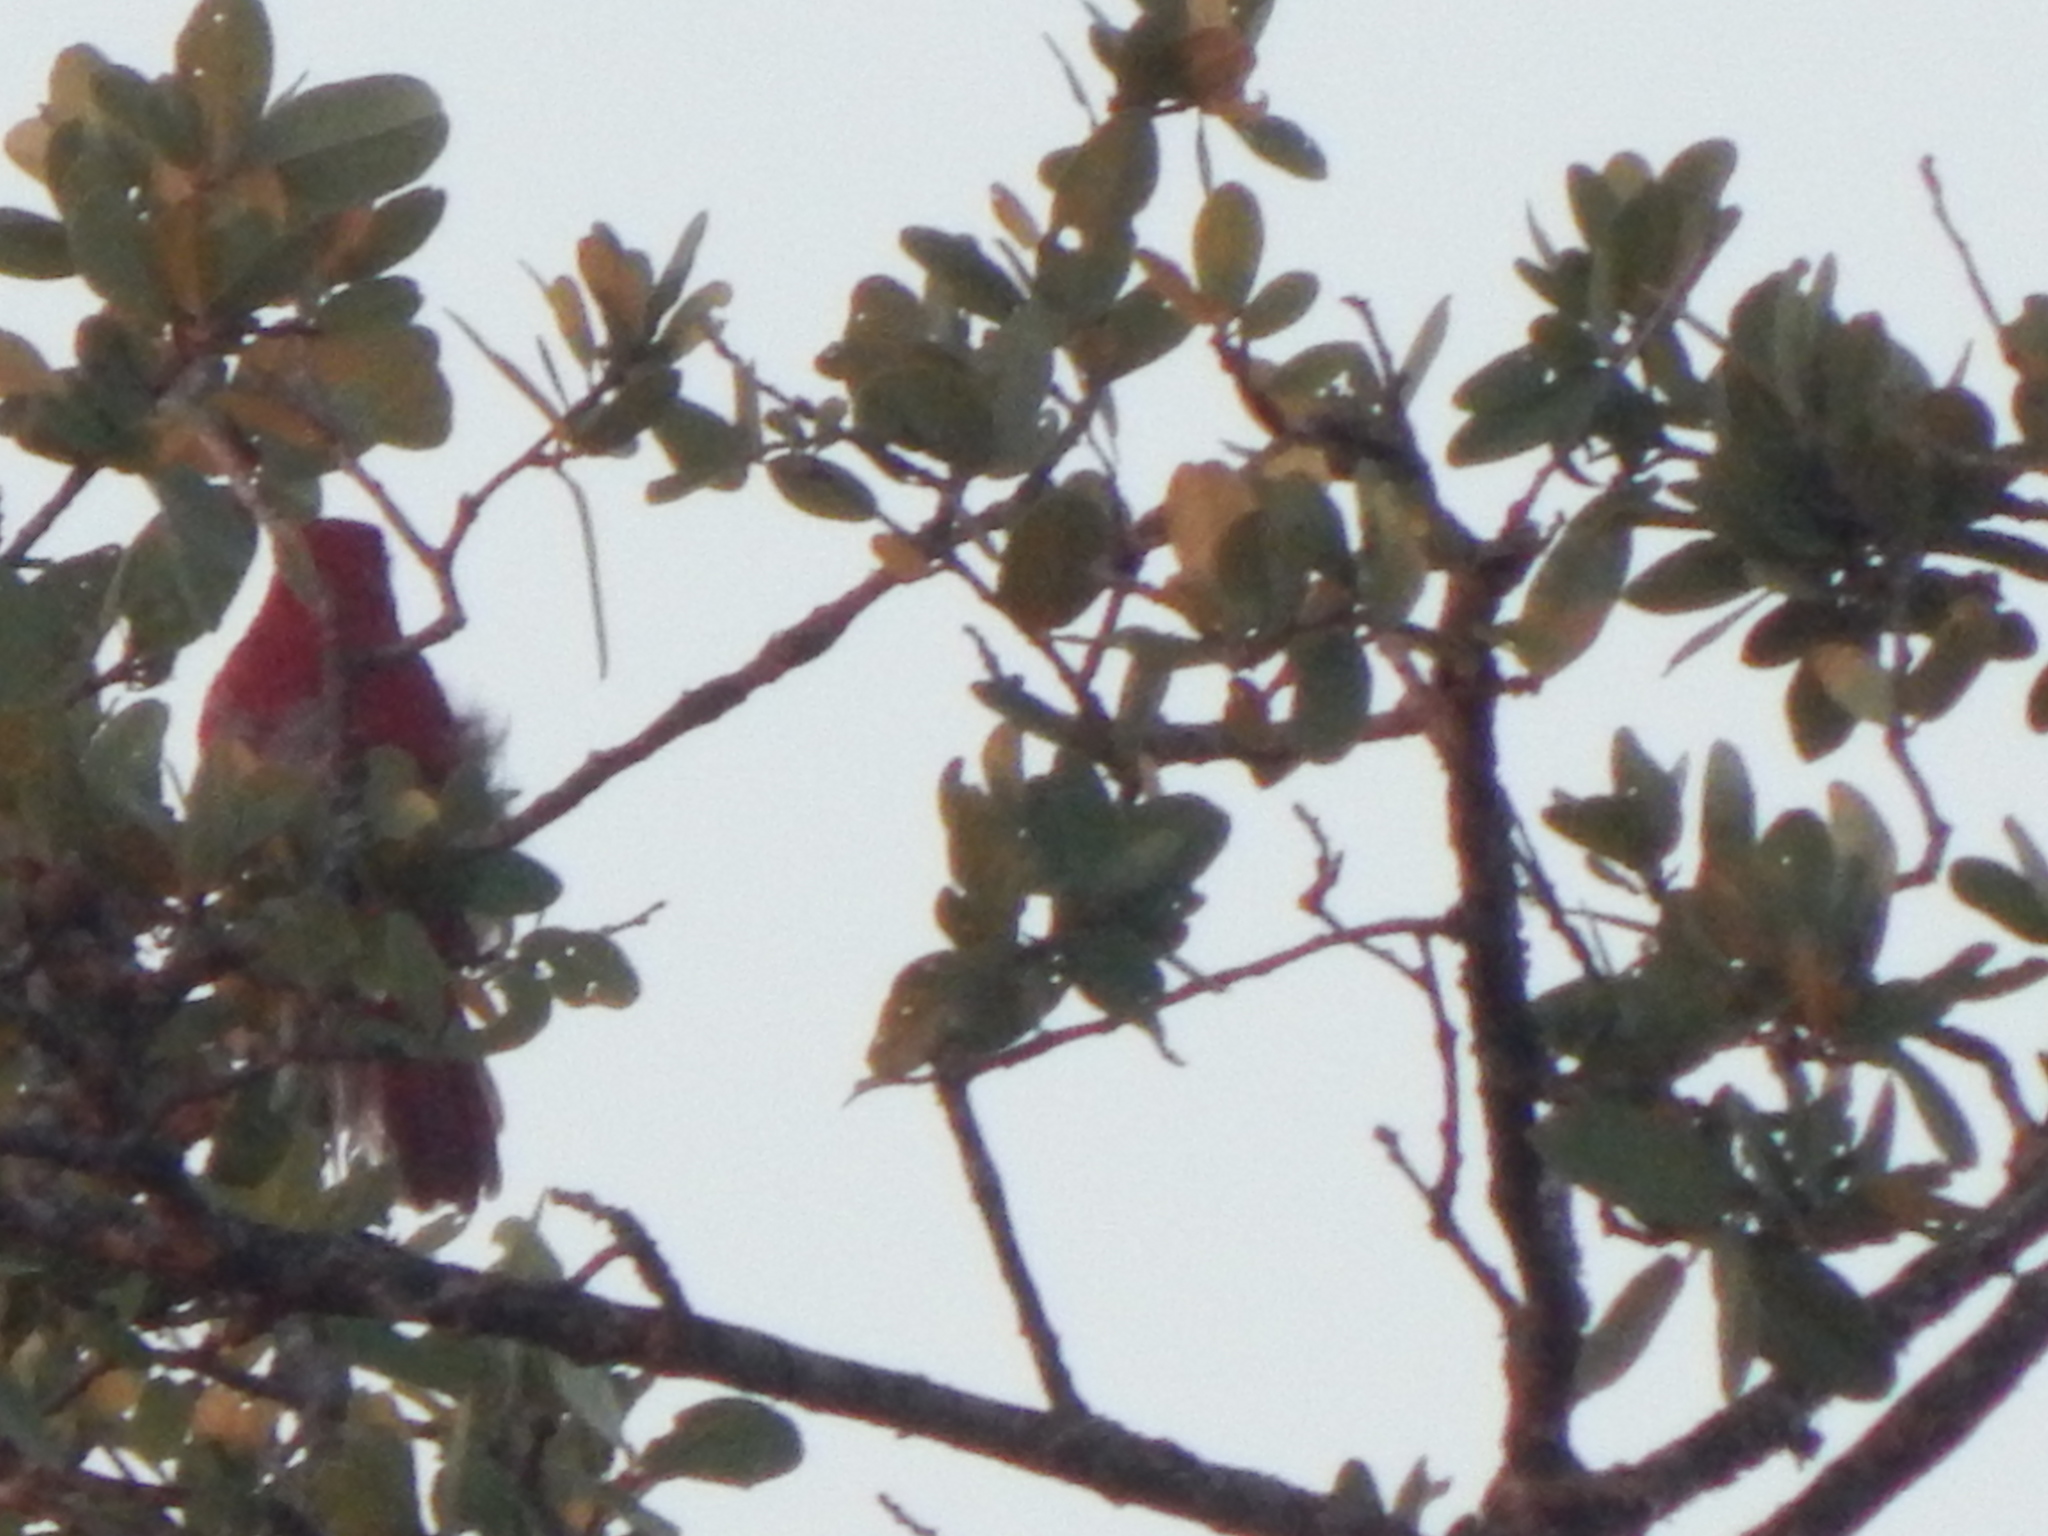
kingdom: Animalia
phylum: Chordata
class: Aves
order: Passeriformes
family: Cardinalidae
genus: Piranga
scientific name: Piranga rubra
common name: Summer tanager
